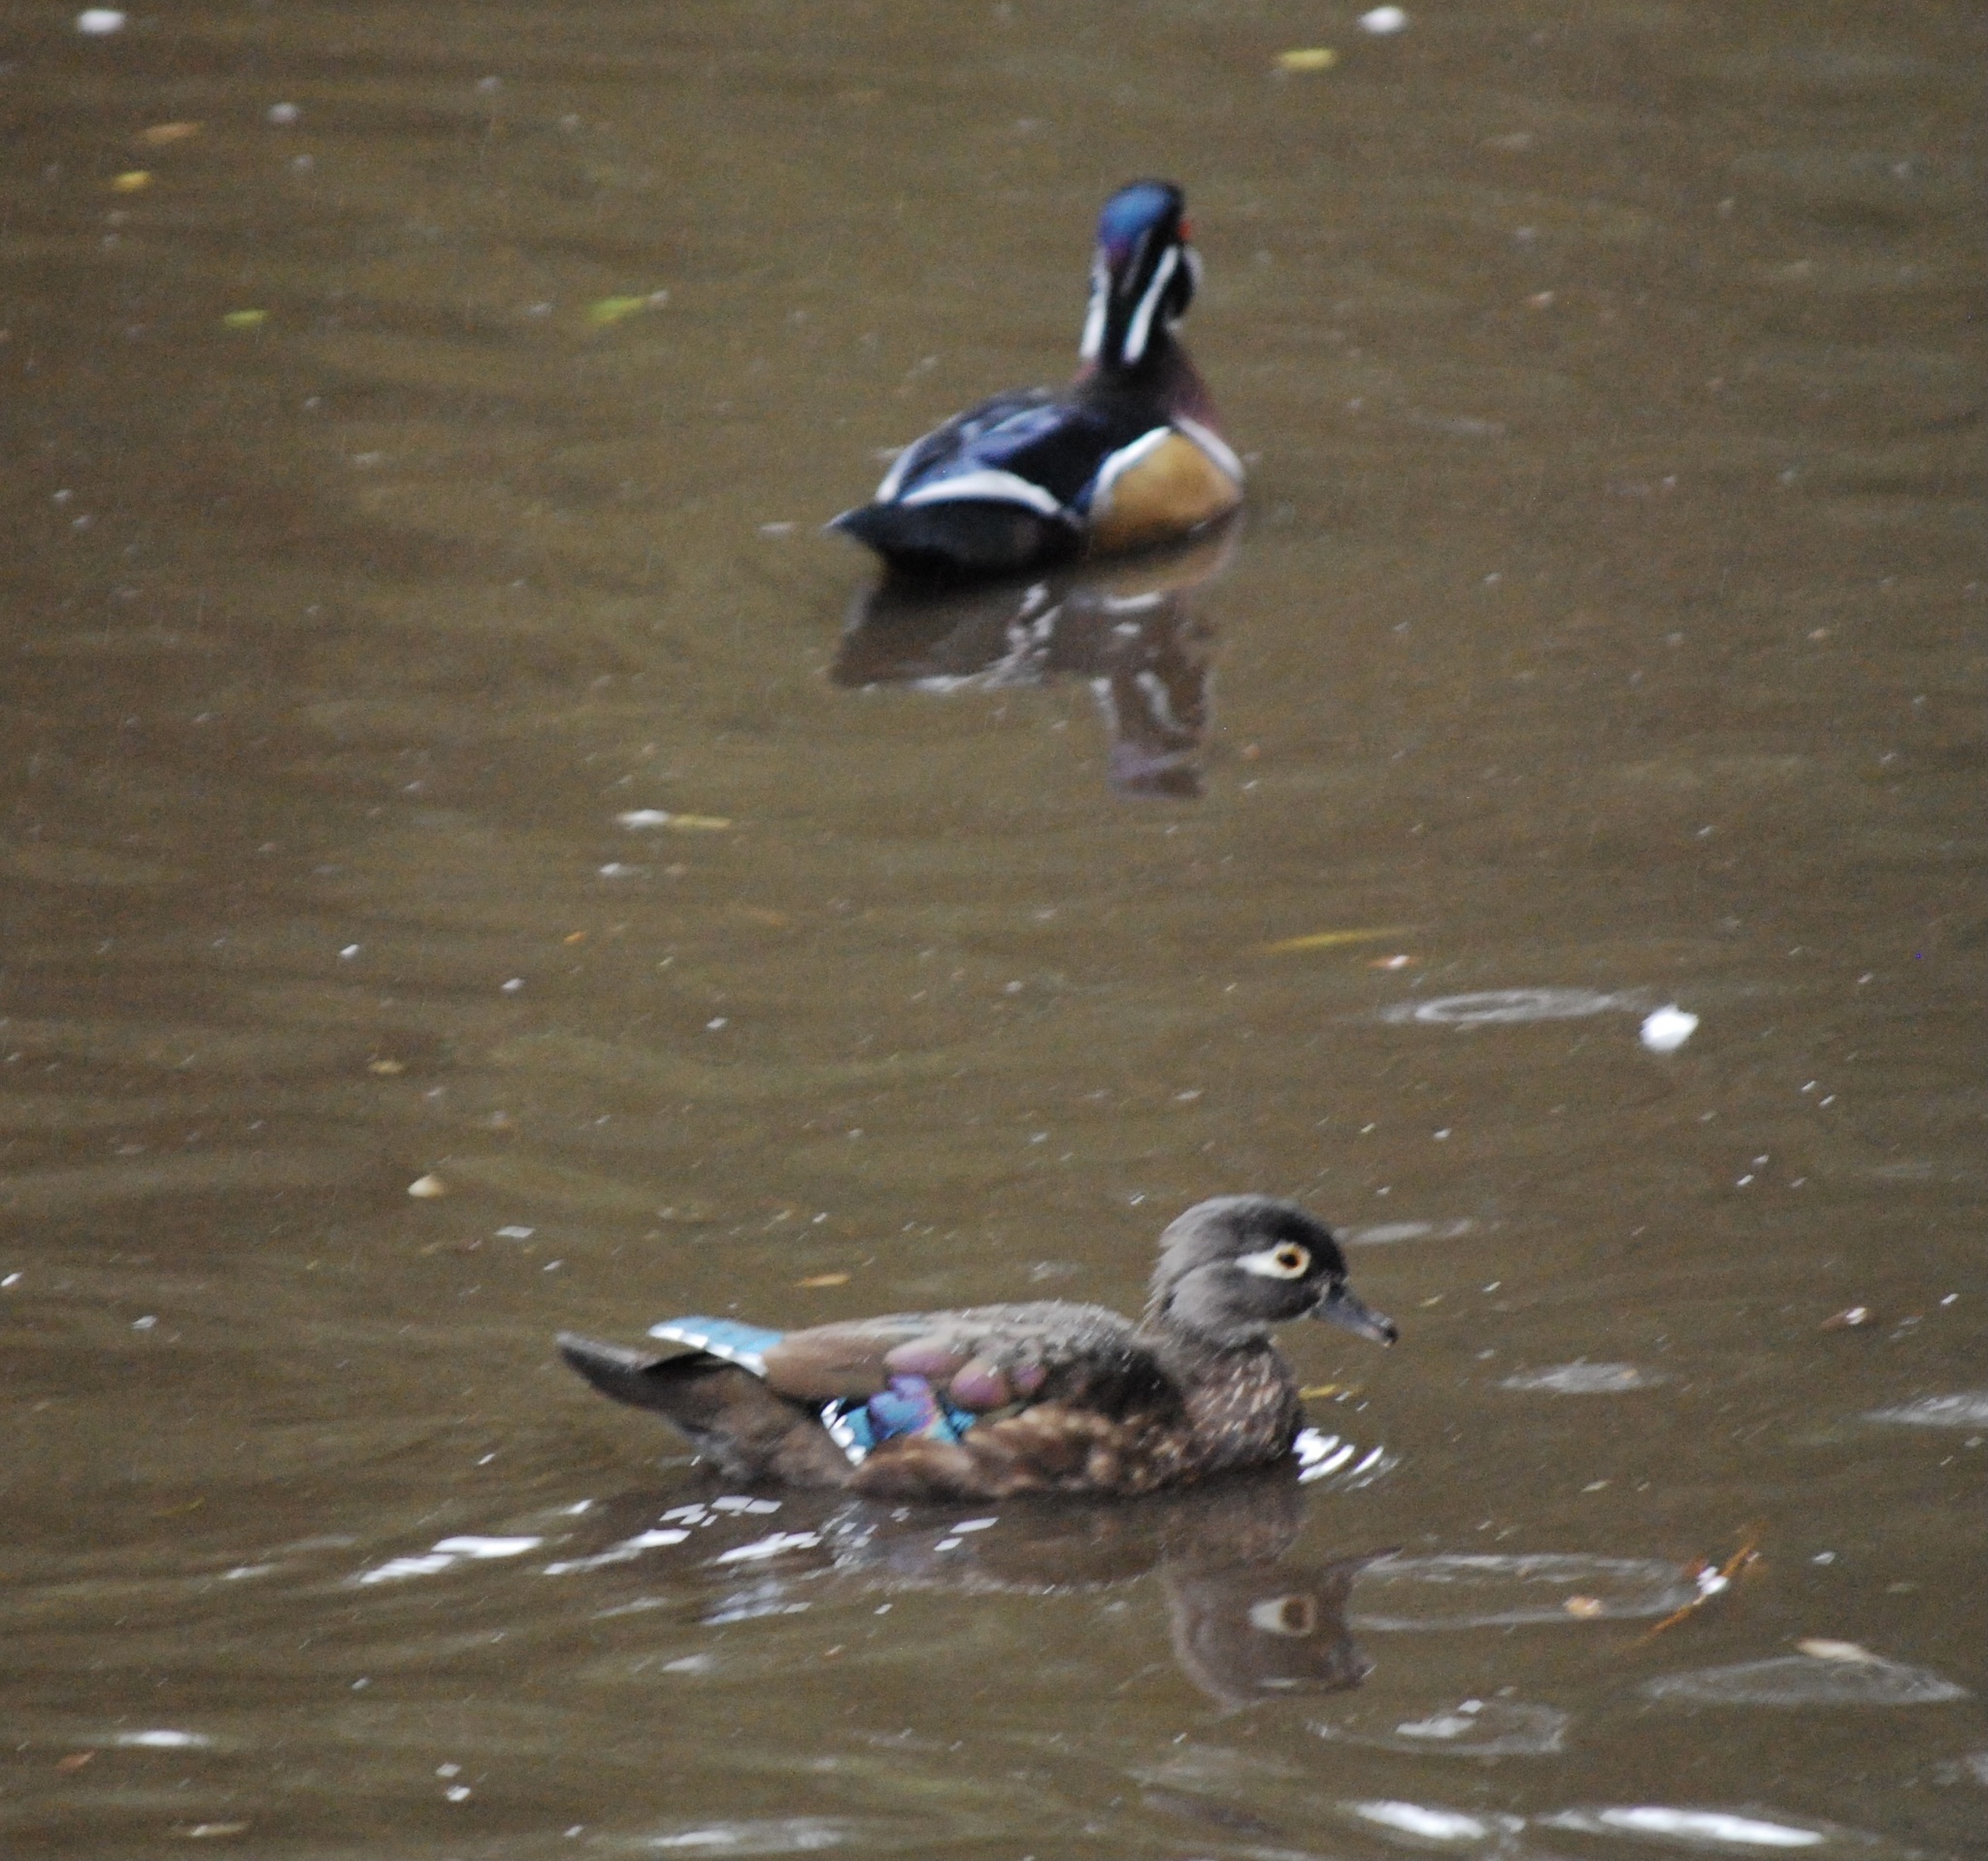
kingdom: Animalia
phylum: Chordata
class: Aves
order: Anseriformes
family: Anatidae
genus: Aix
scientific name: Aix sponsa
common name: Wood duck
